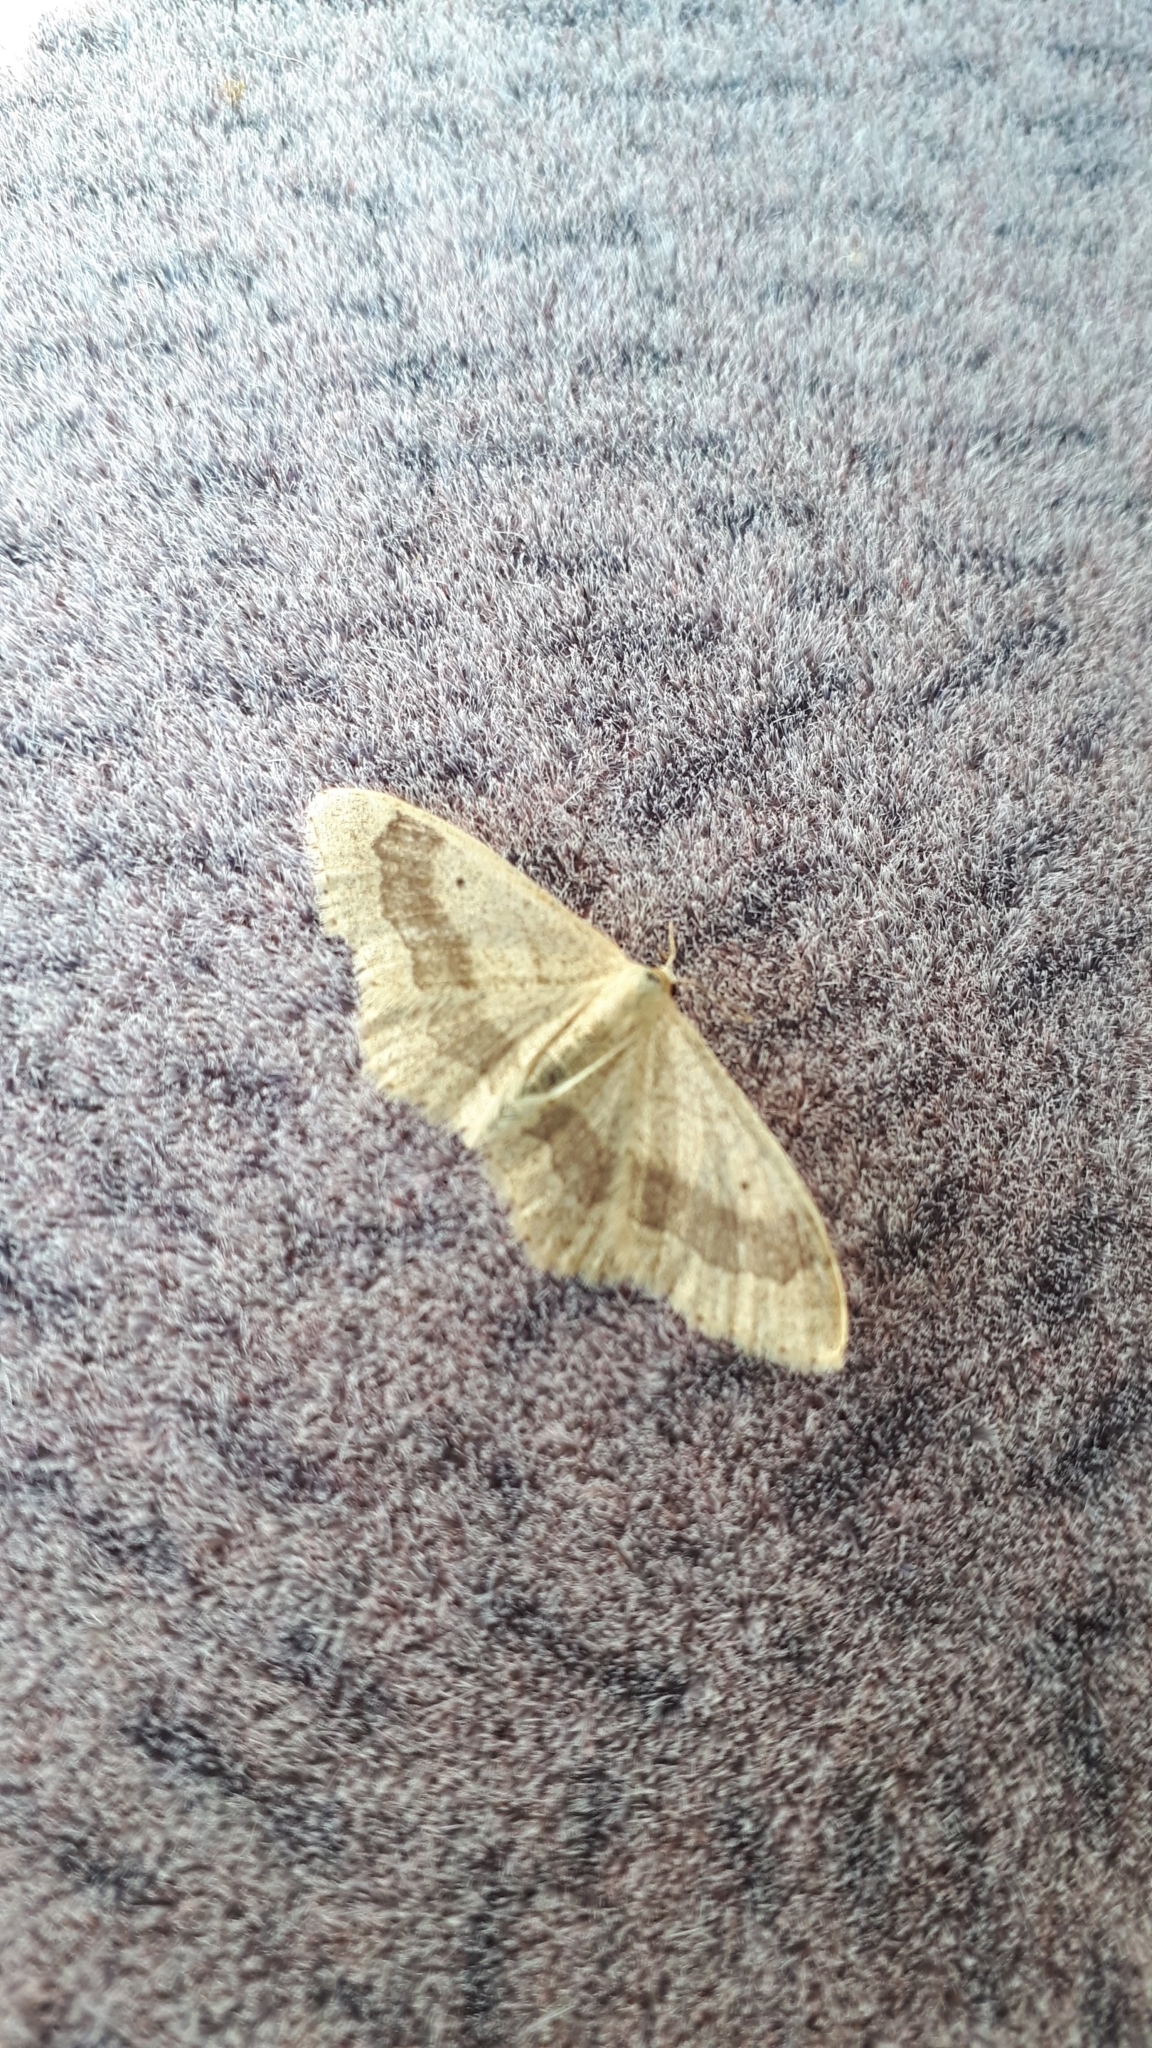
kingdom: Animalia
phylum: Arthropoda
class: Insecta
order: Lepidoptera
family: Geometridae
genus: Idaea
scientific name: Idaea aversata
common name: Riband wave
